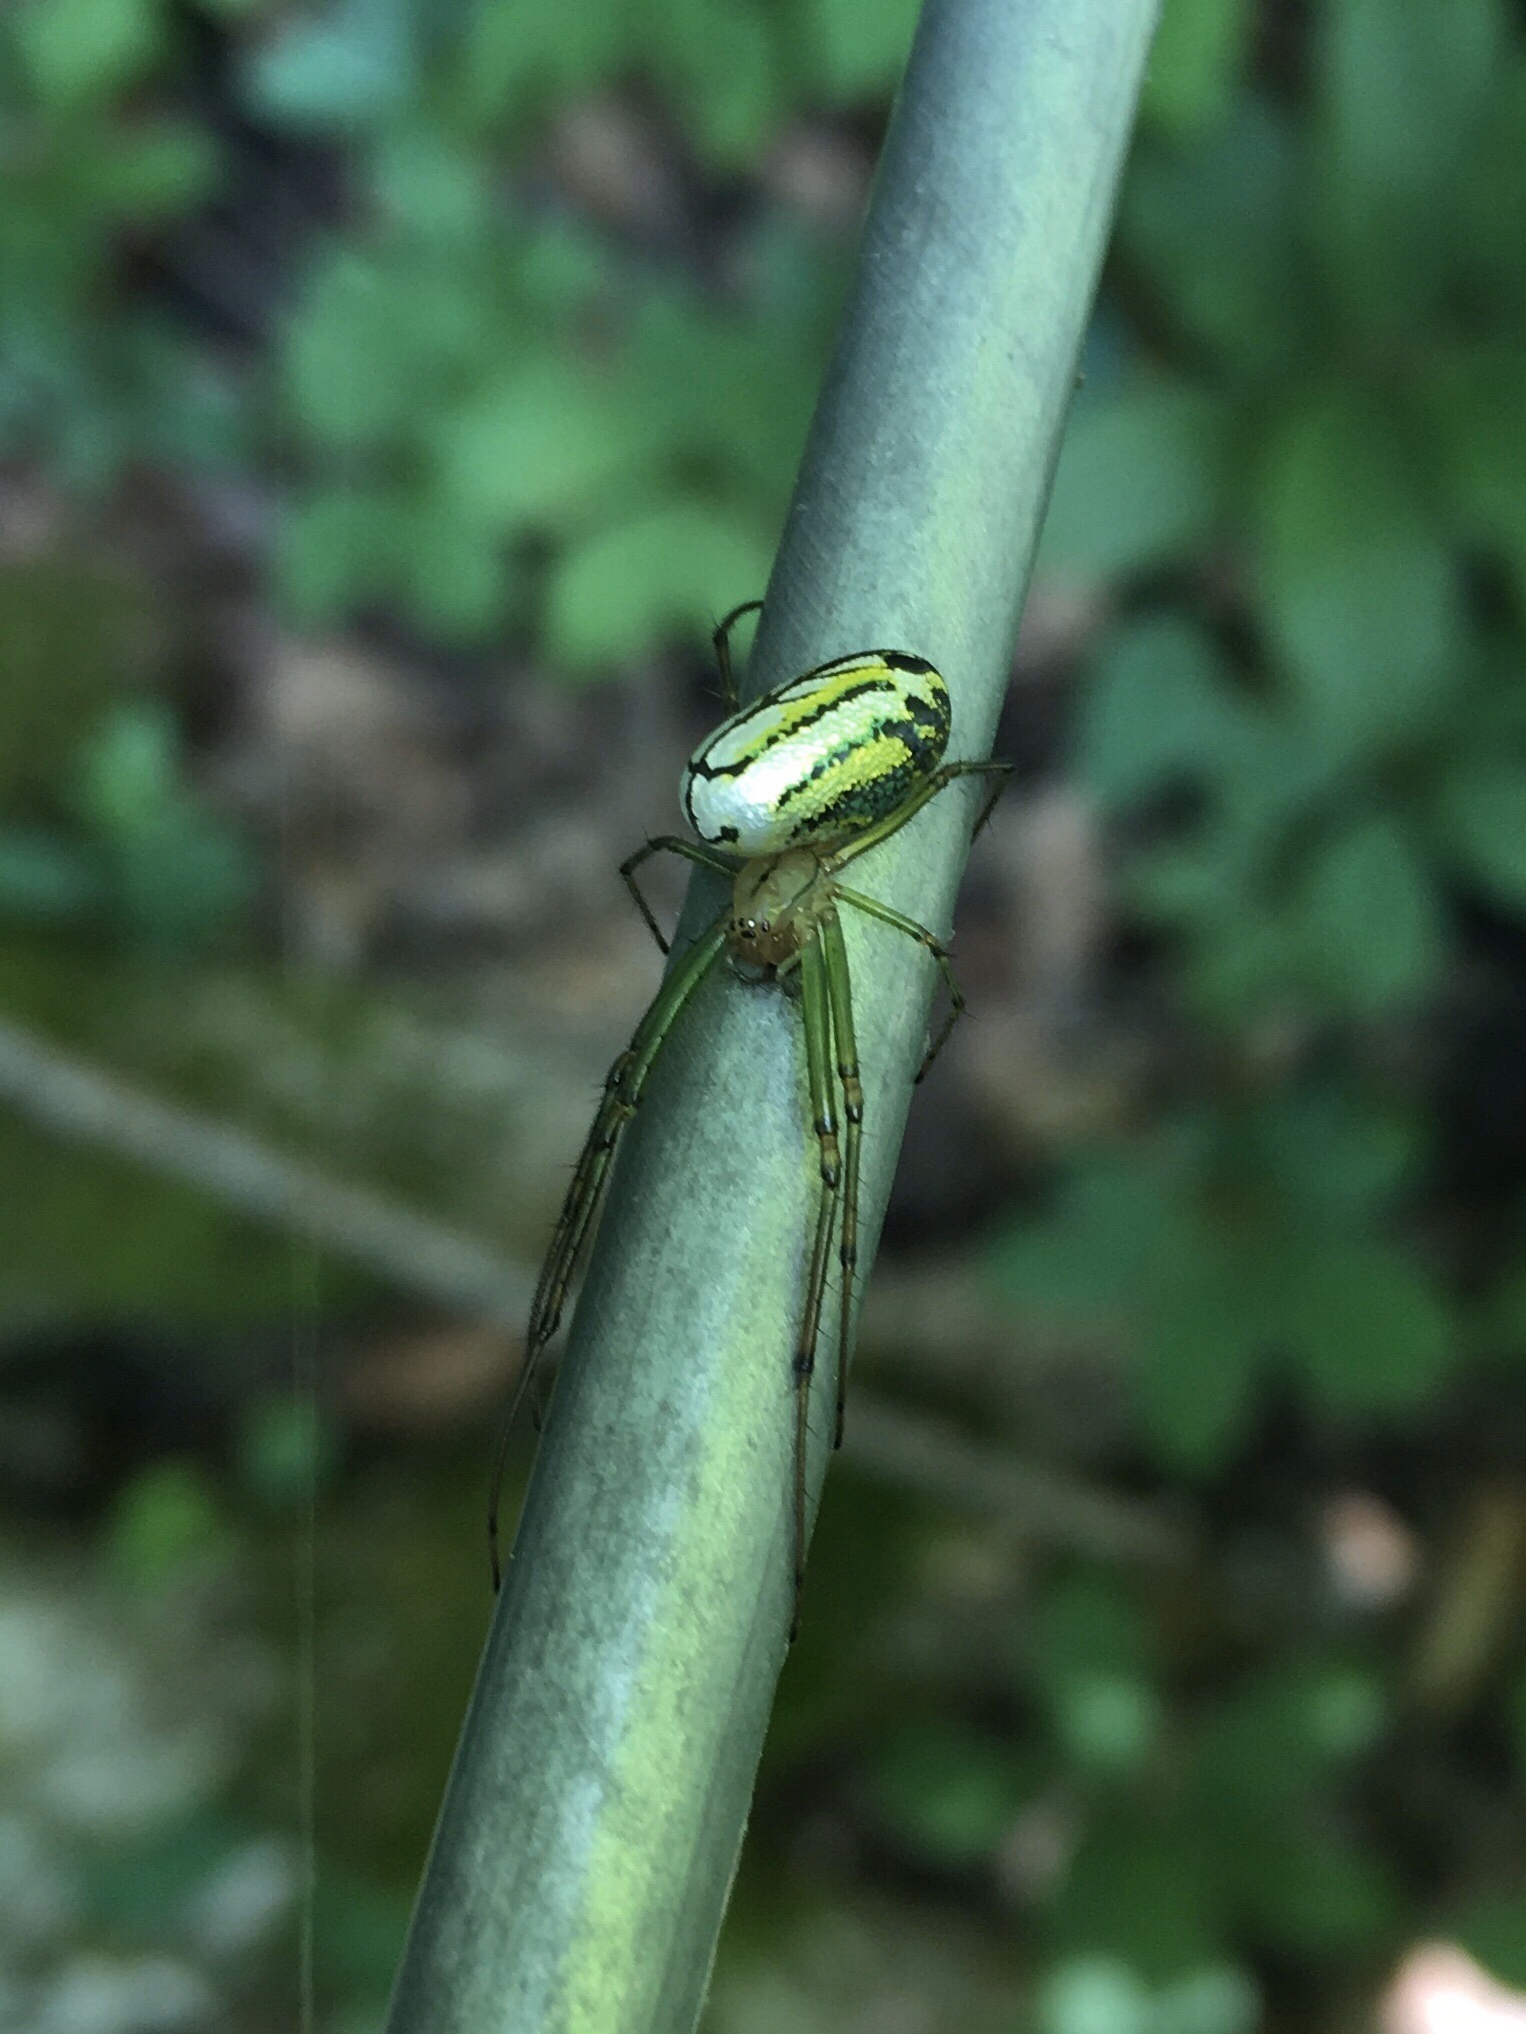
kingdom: Animalia
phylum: Arthropoda
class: Arachnida
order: Araneae
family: Tetragnathidae
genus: Leucauge
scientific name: Leucauge venusta
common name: Longjawed orb weavers
